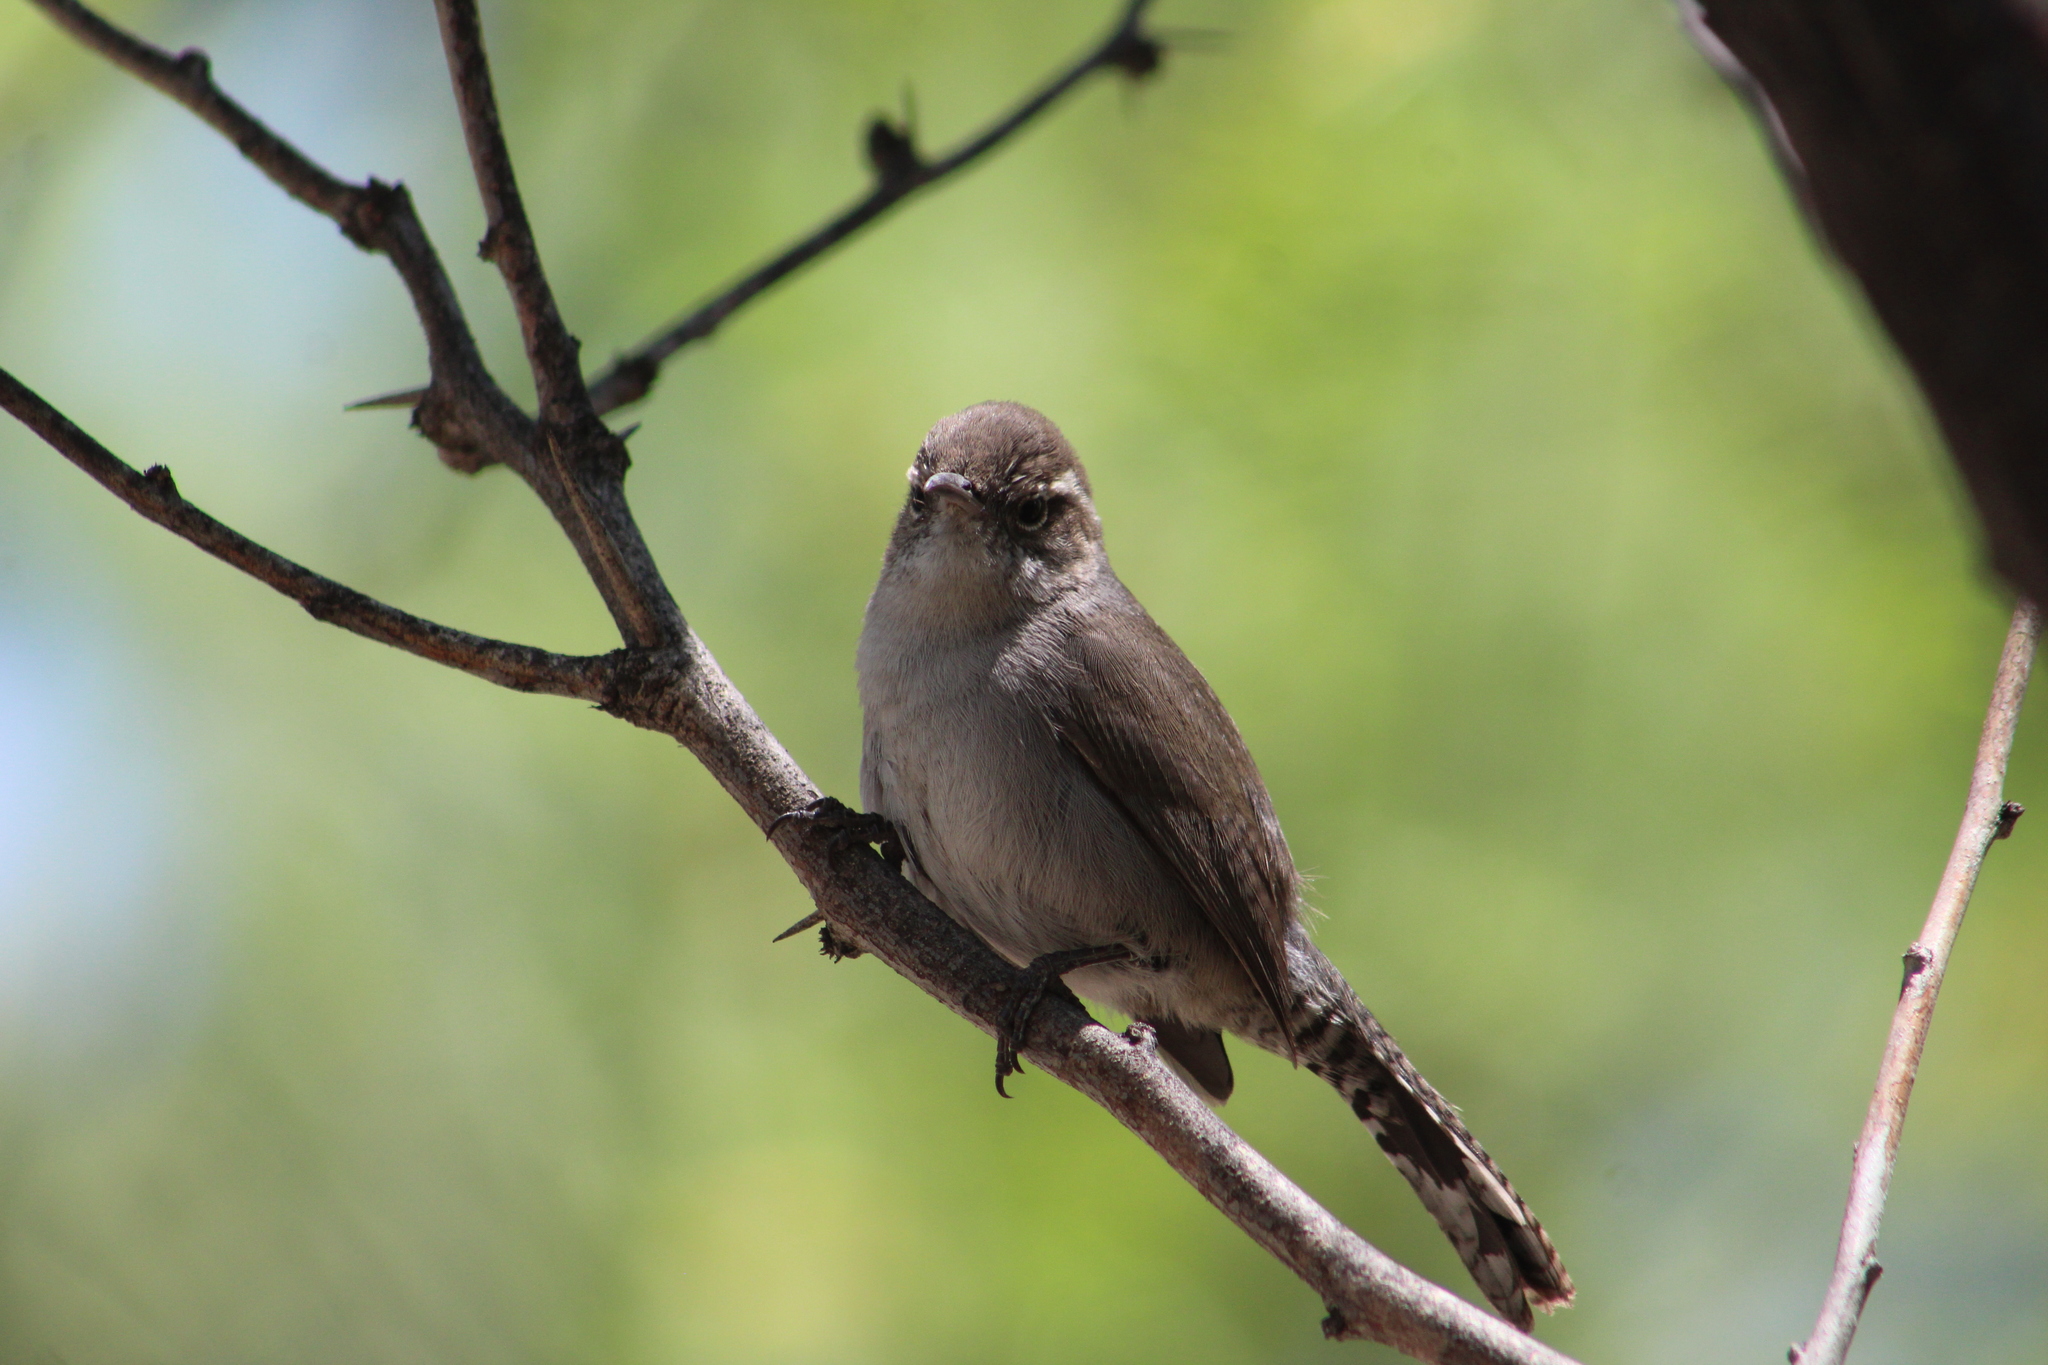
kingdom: Animalia
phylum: Chordata
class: Aves
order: Passeriformes
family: Troglodytidae
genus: Thryomanes
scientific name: Thryomanes bewickii
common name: Bewick's wren
